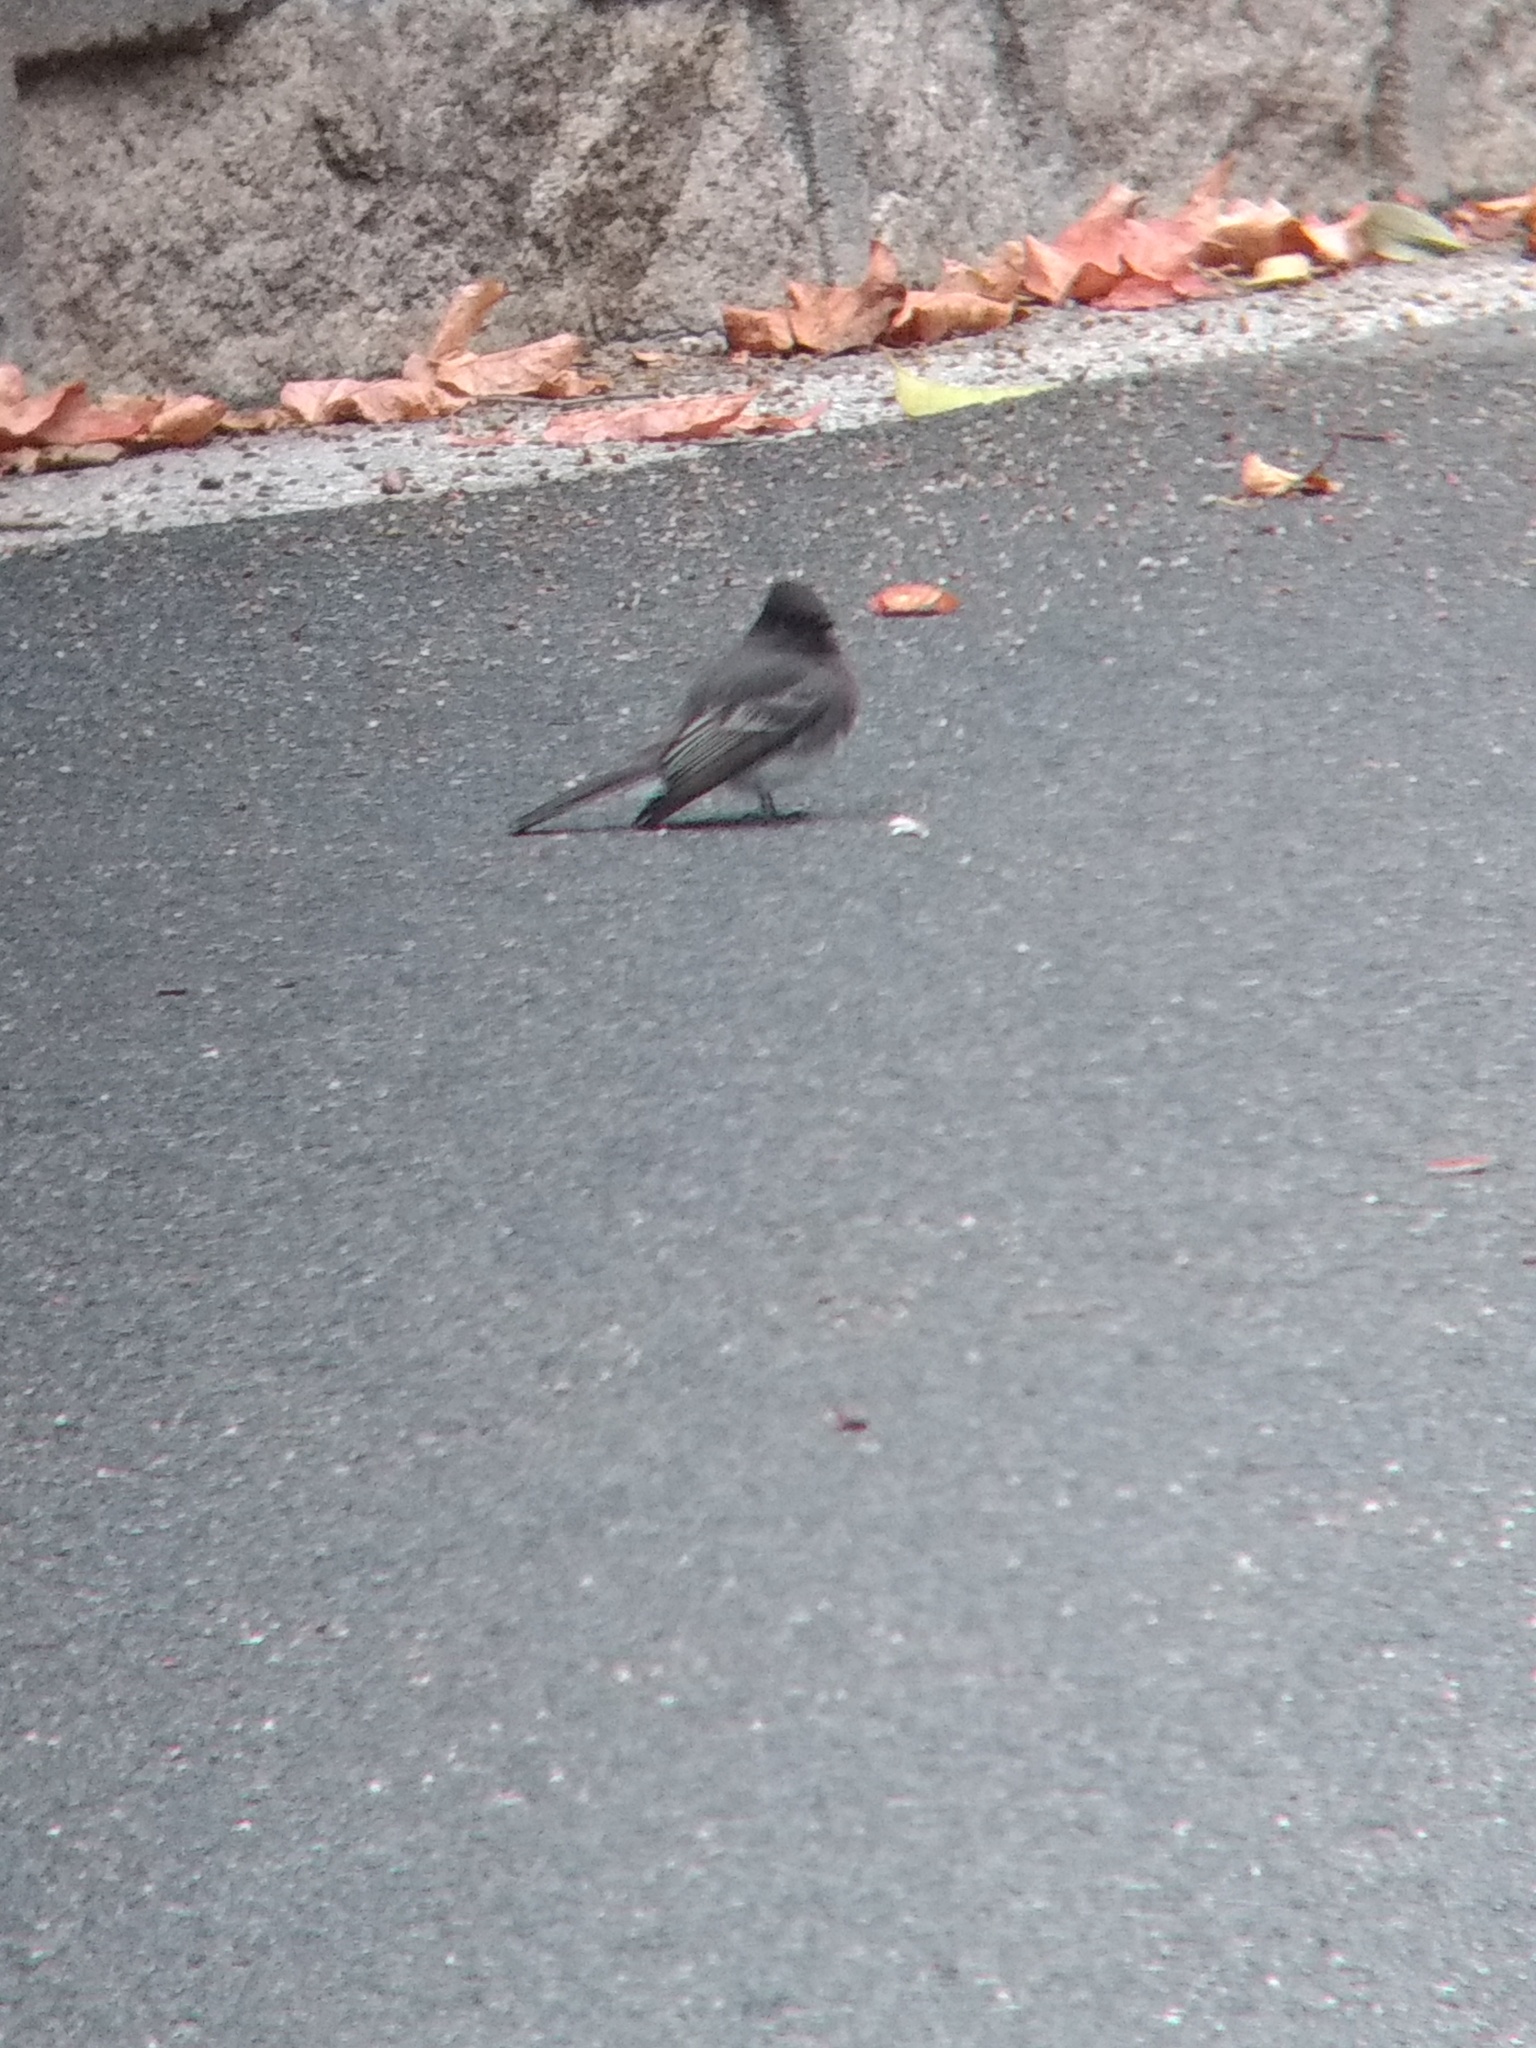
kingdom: Animalia
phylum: Chordata
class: Aves
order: Passeriformes
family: Tyrannidae
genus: Sayornis
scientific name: Sayornis nigricans
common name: Black phoebe
